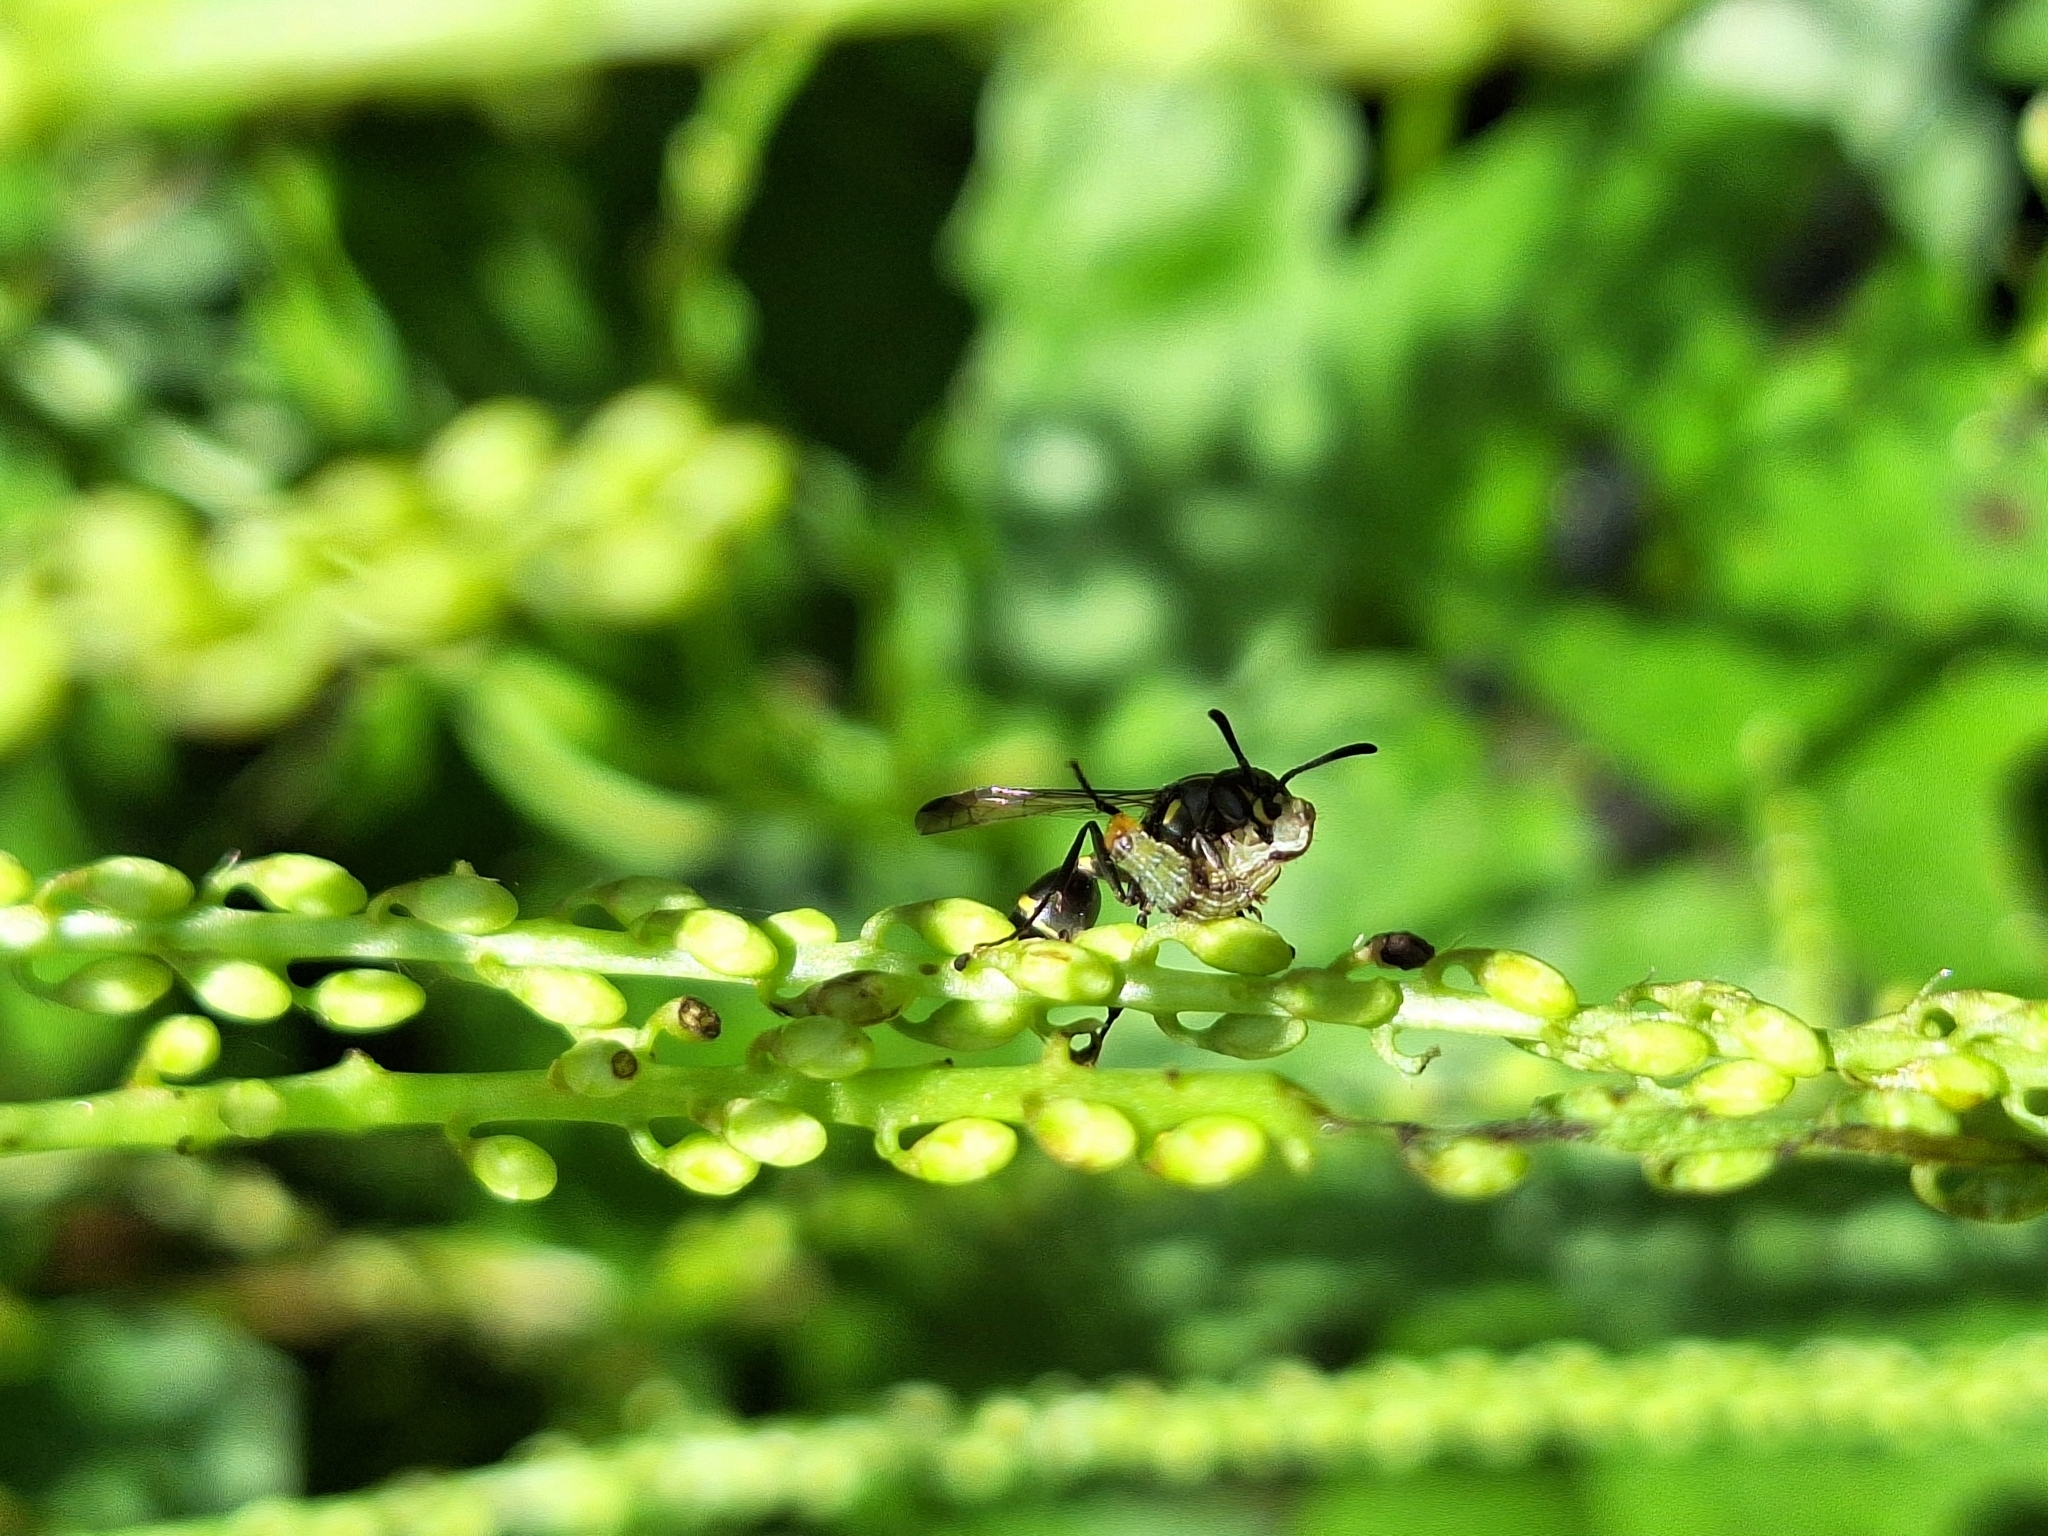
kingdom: Animalia
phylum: Arthropoda
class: Insecta
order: Hymenoptera
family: Eumenidae
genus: Polybia
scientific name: Polybia occidentalis
